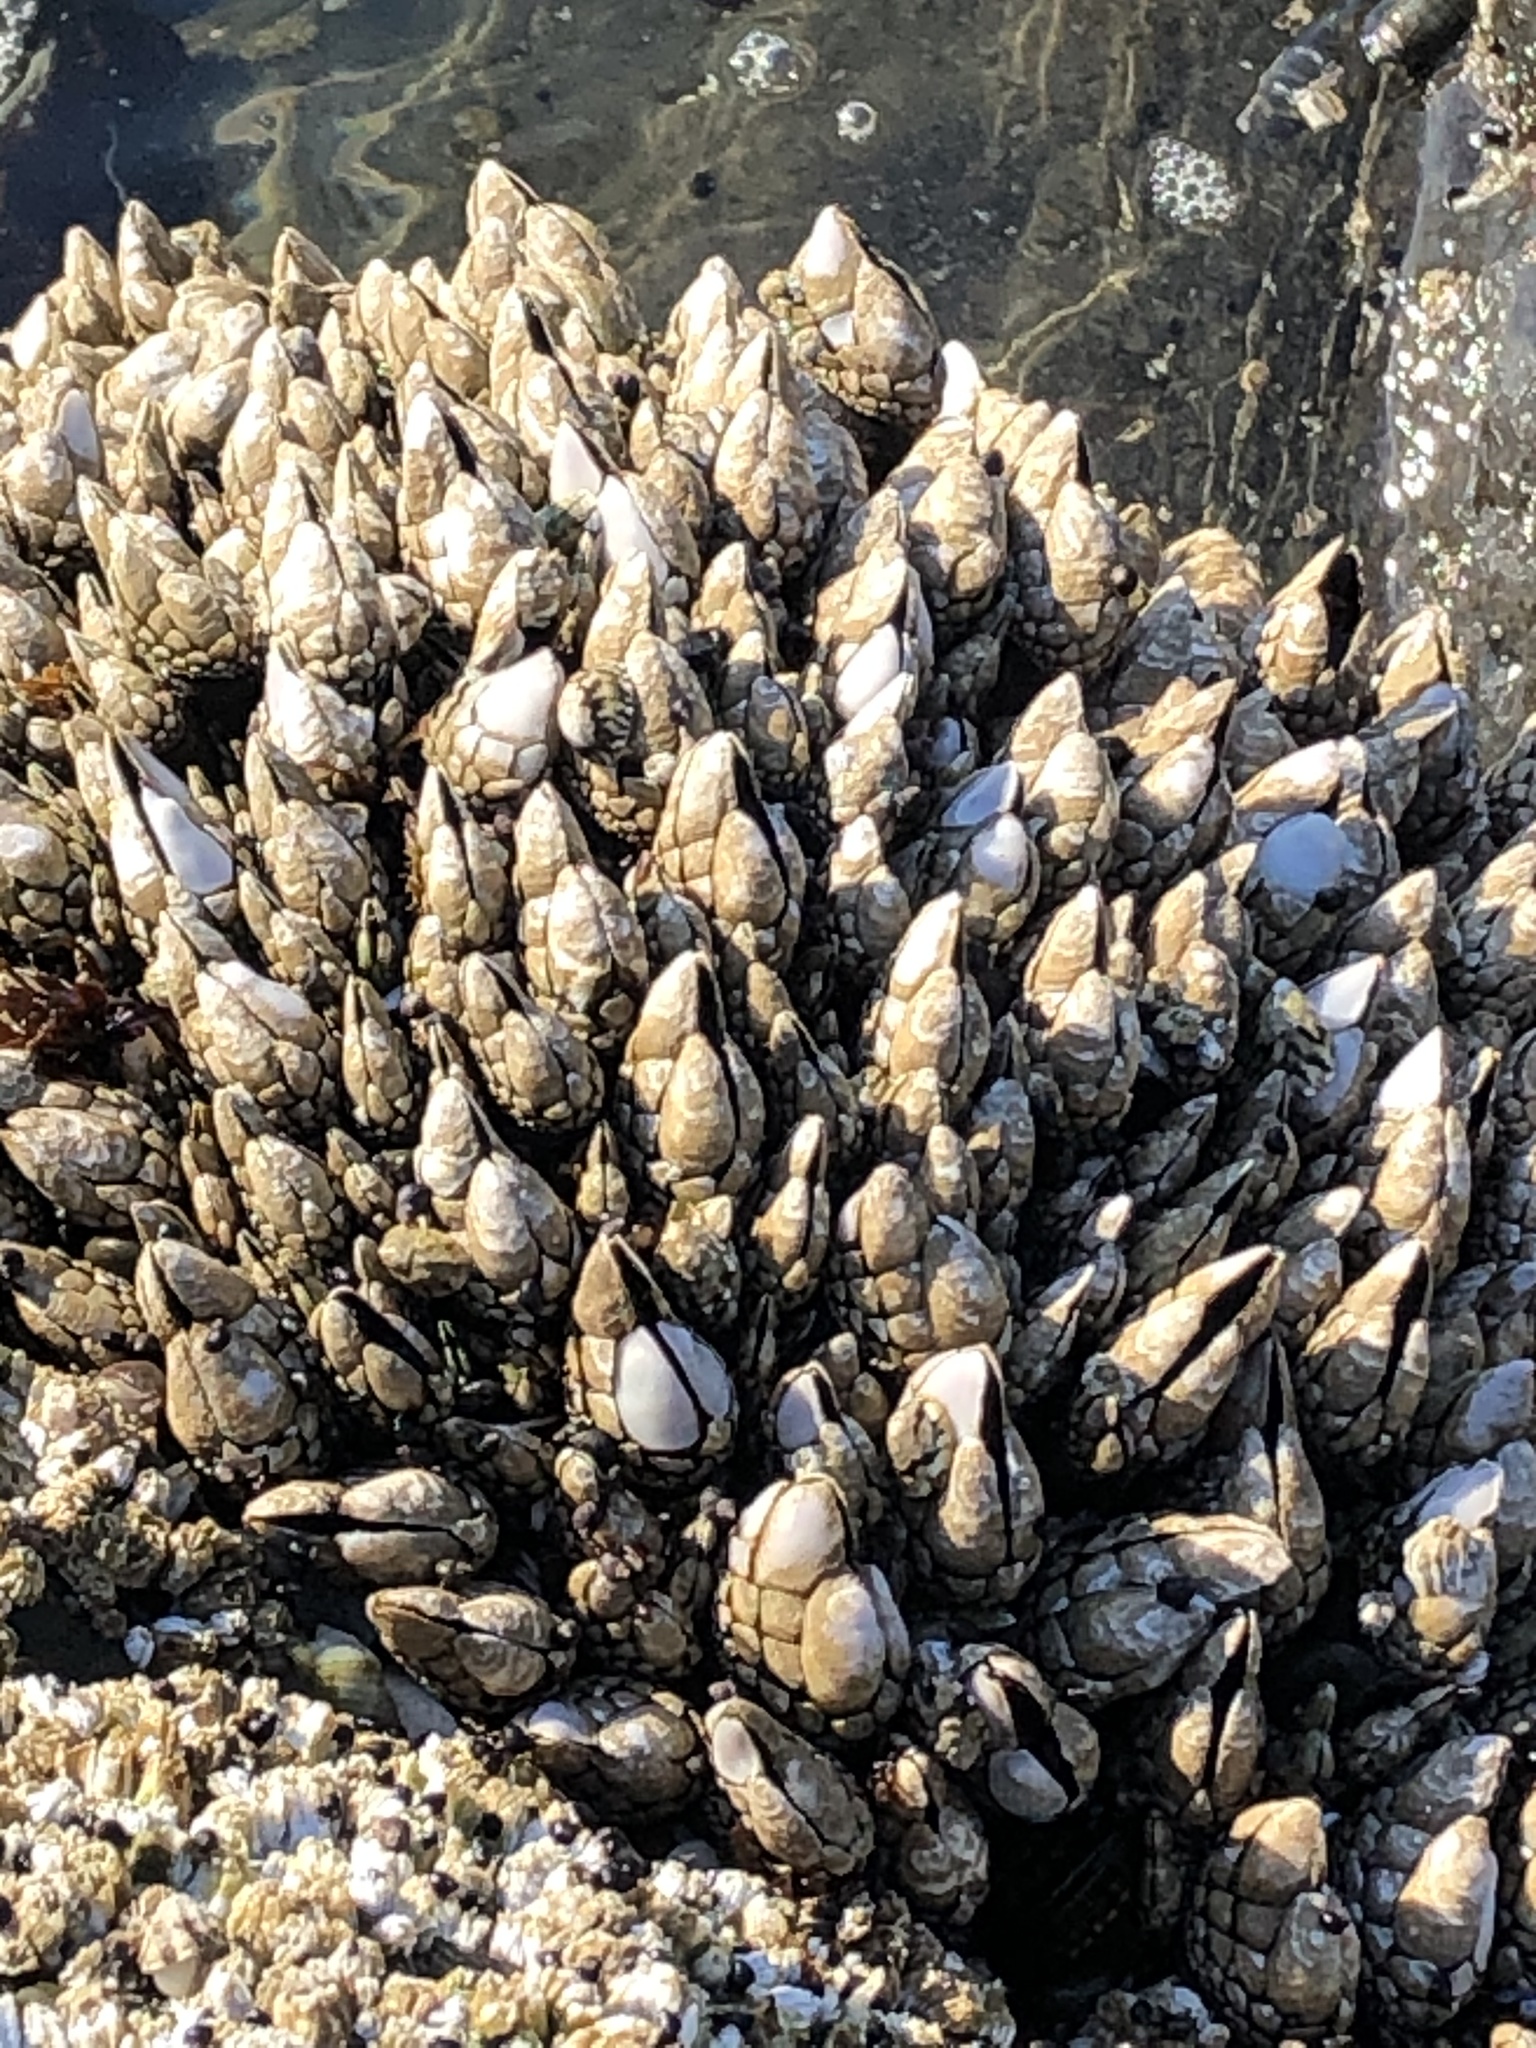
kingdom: Animalia
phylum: Arthropoda
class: Maxillopoda
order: Pedunculata
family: Pollicipedidae
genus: Pollicipes
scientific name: Pollicipes polymerus
